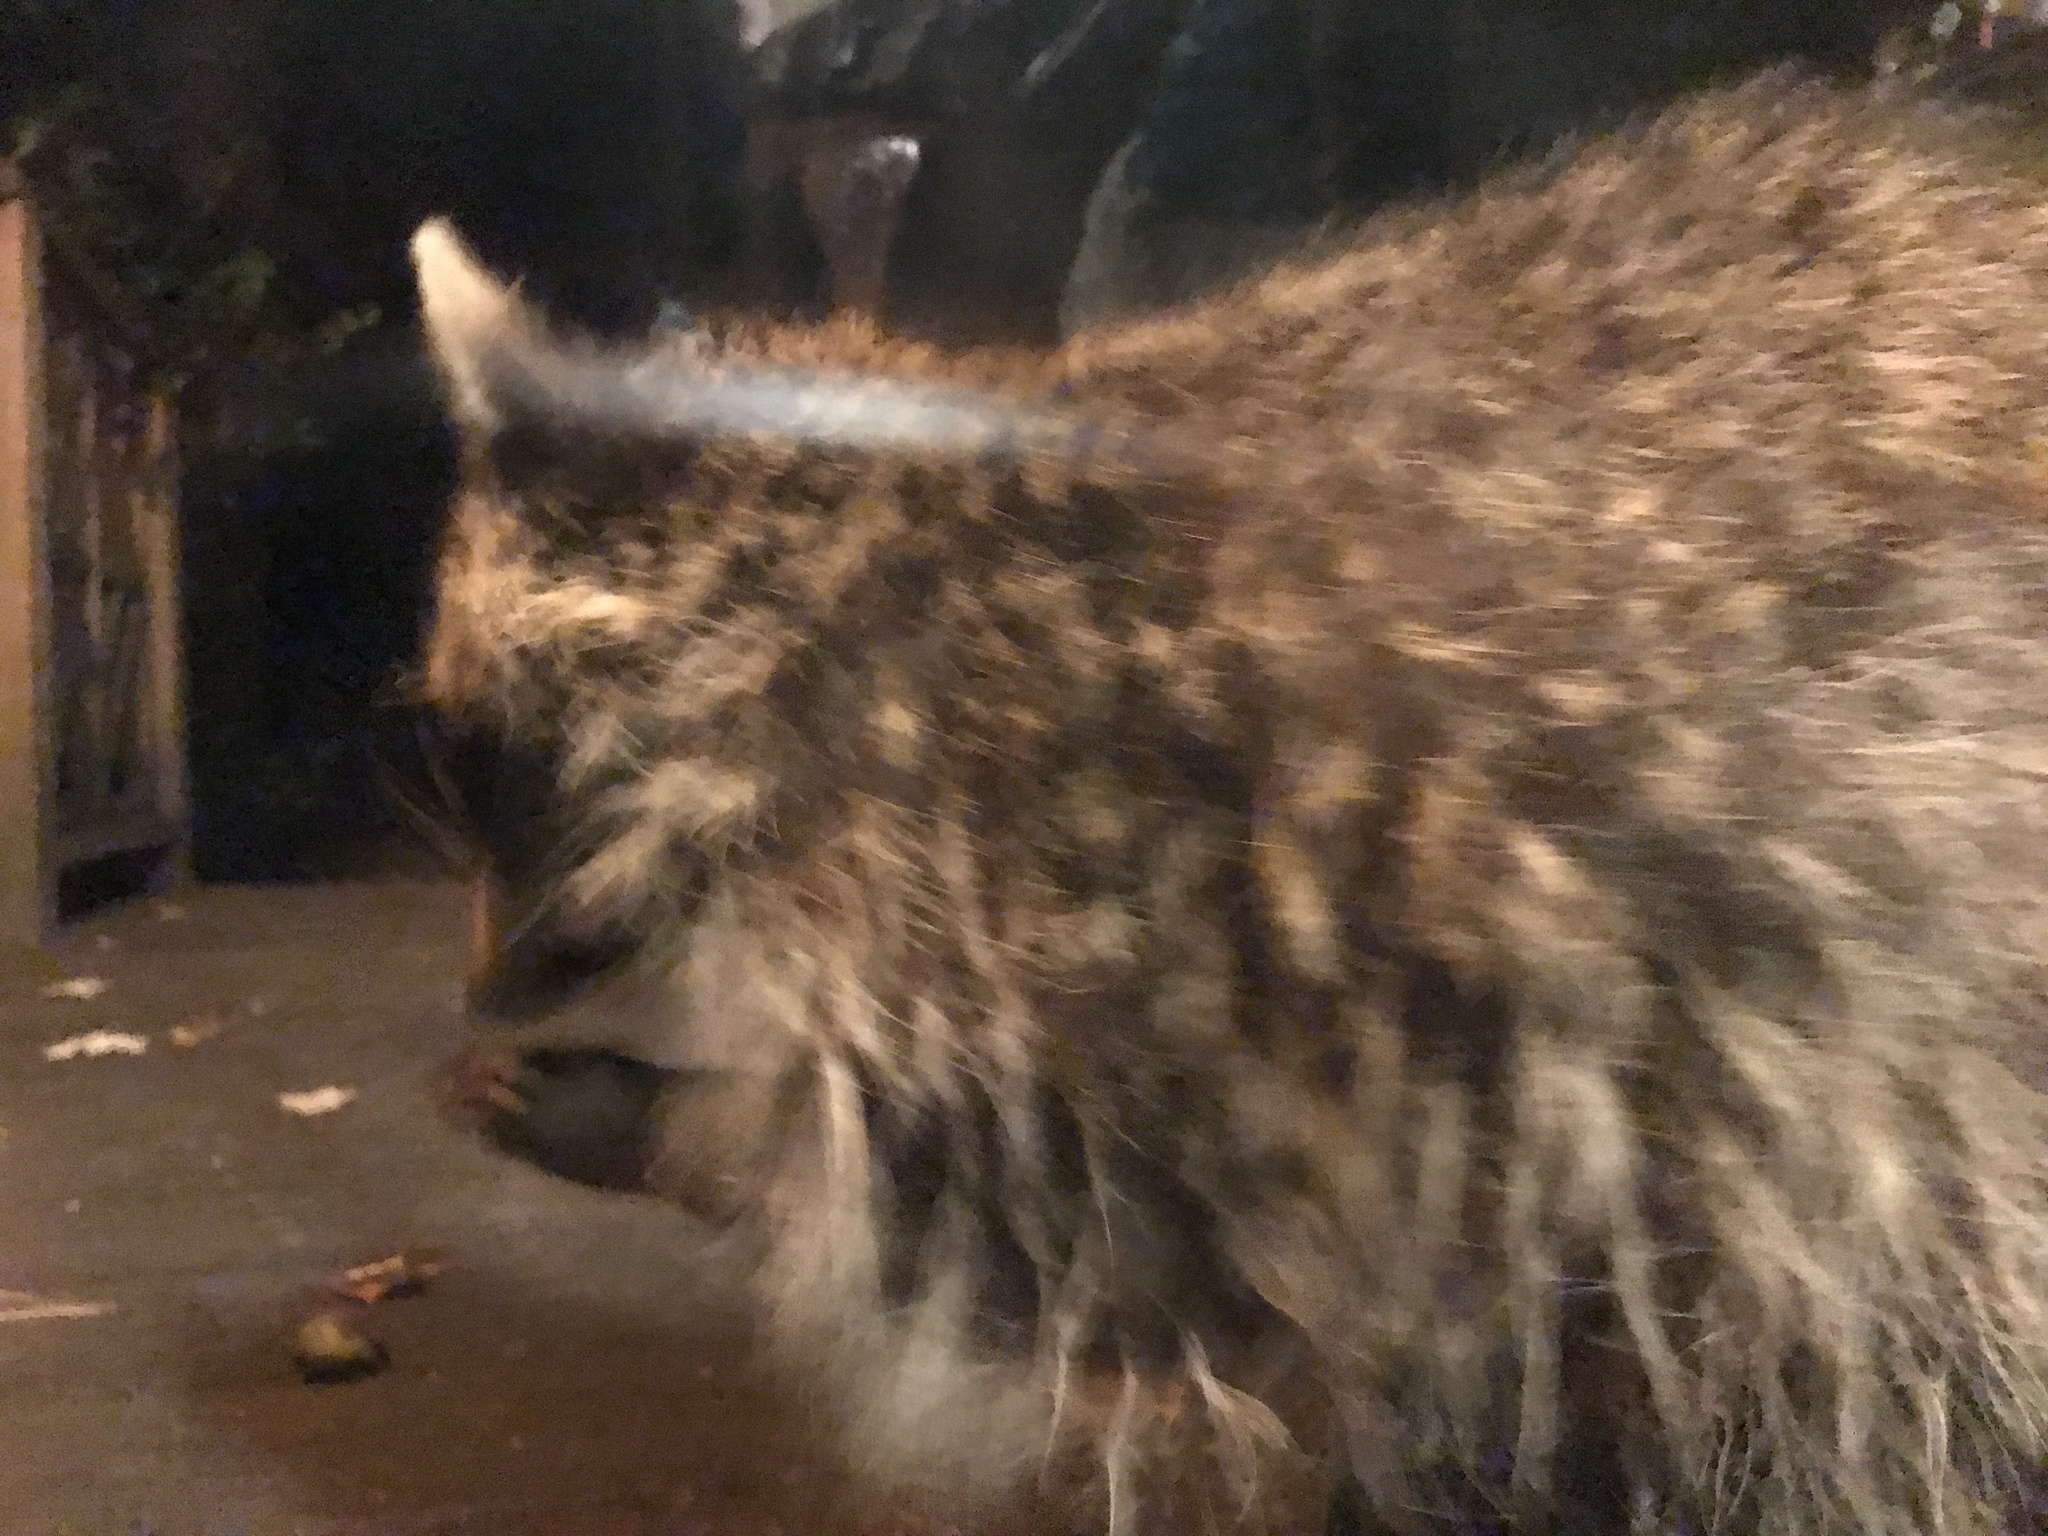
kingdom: Animalia
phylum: Chordata
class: Mammalia
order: Carnivora
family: Procyonidae
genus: Procyon
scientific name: Procyon lotor
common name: Raccoon
